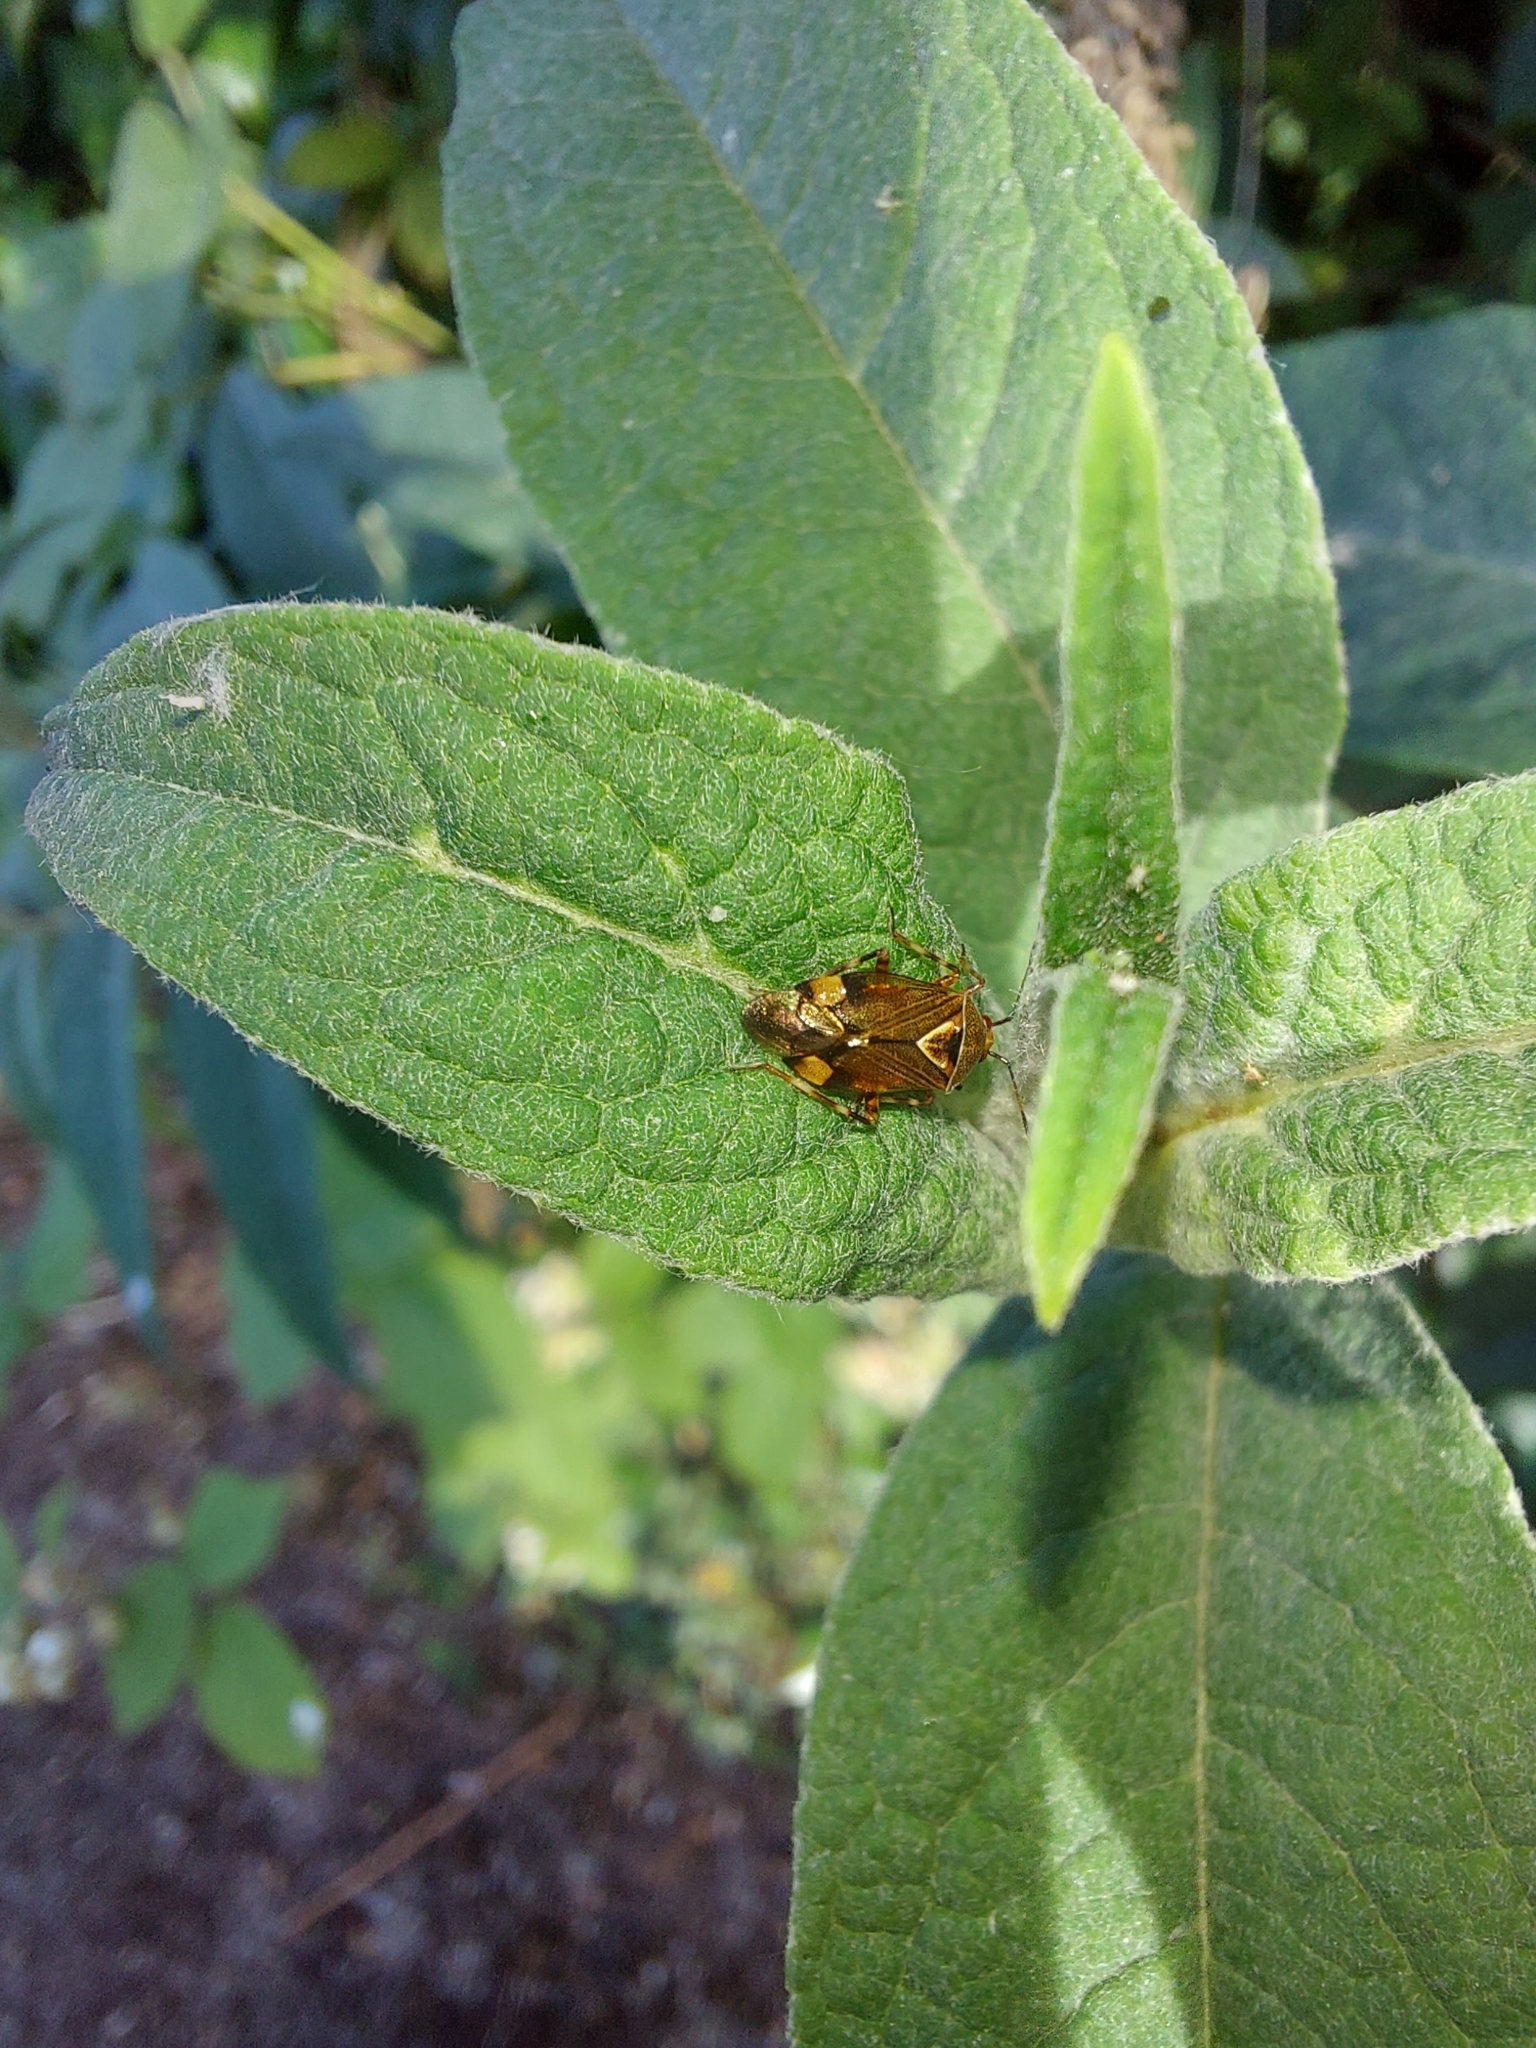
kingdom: Animalia
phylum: Arthropoda
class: Insecta
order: Hemiptera
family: Miridae
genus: Deraeocoris
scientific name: Deraeocoris flavilinea
